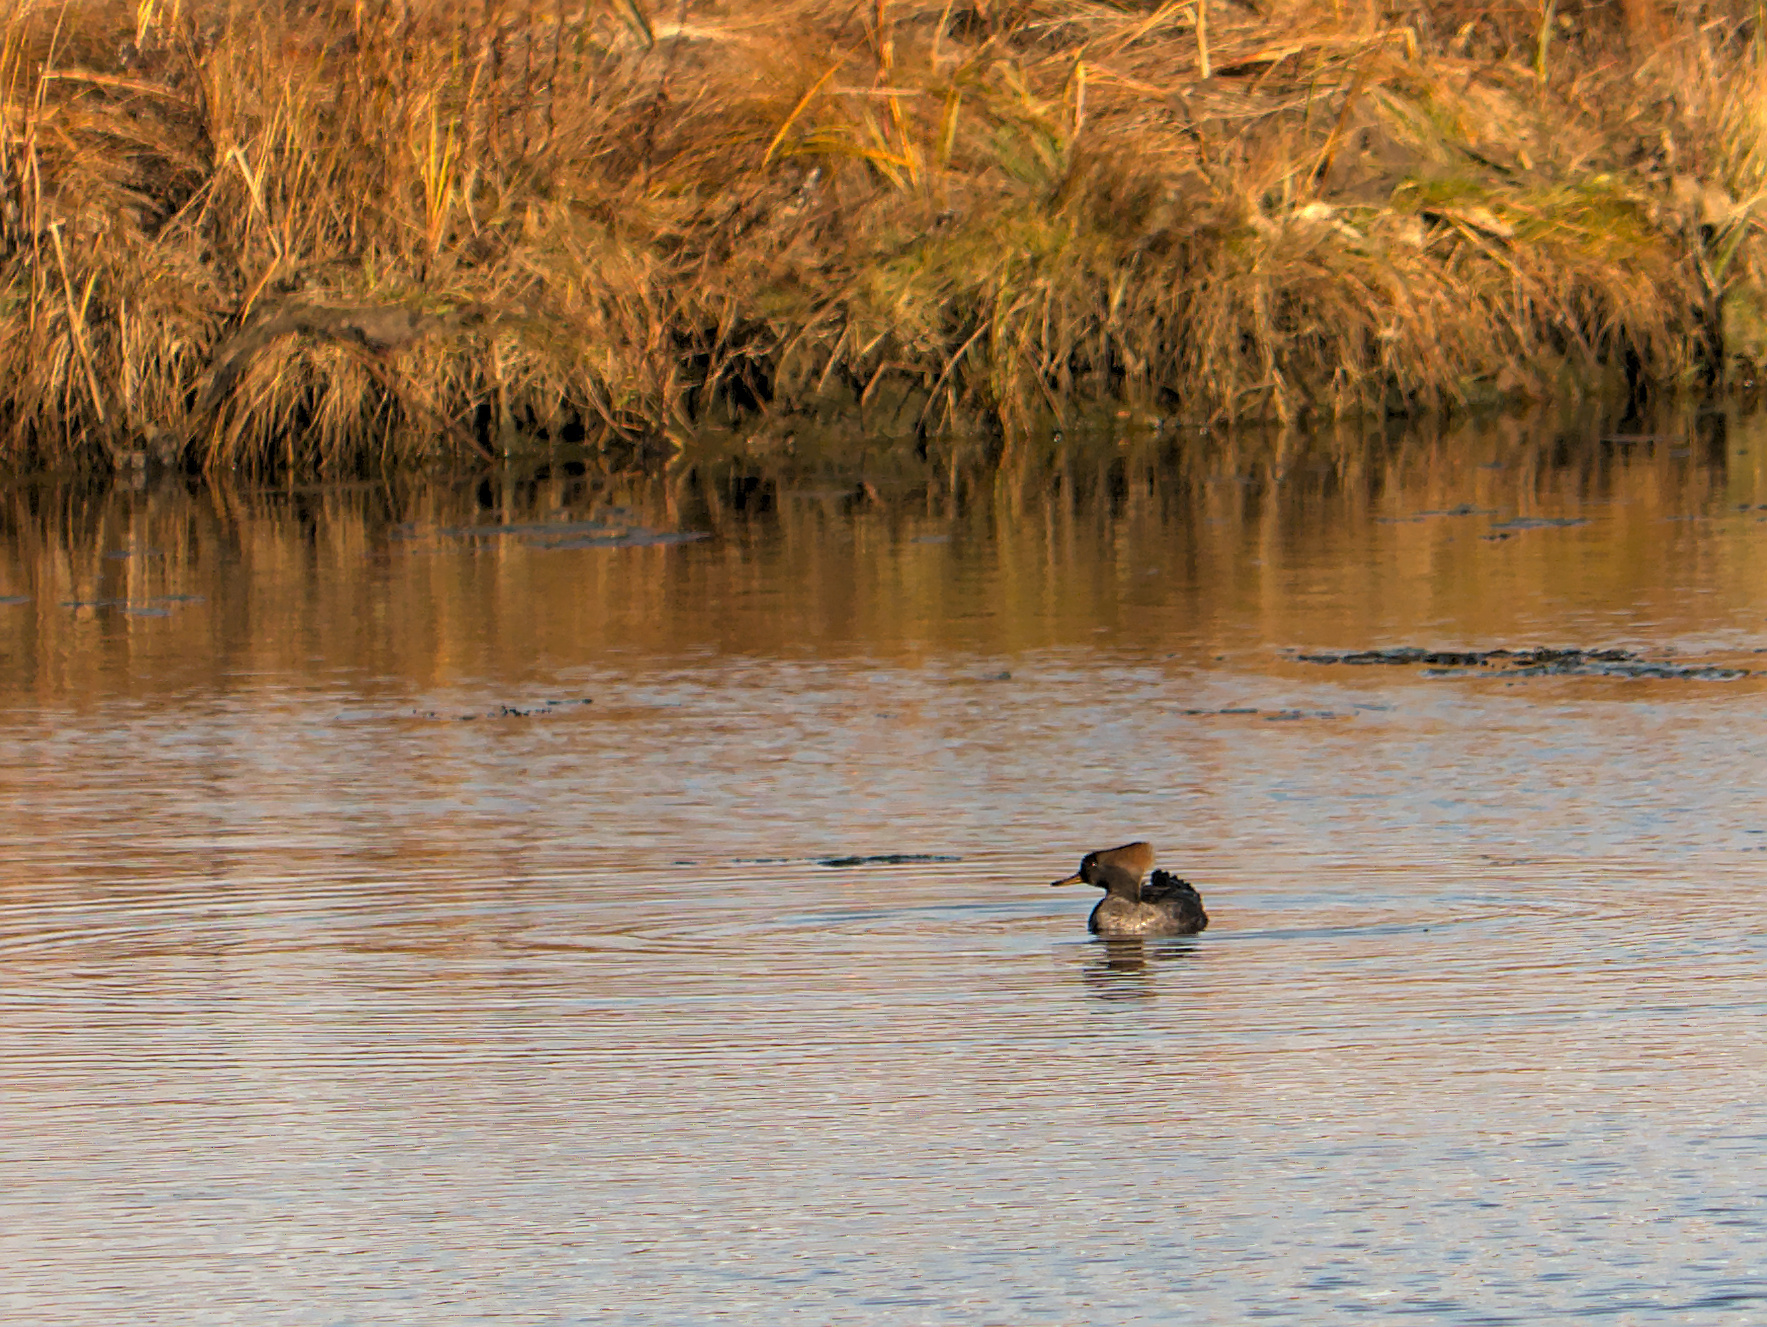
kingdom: Animalia
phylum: Chordata
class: Aves
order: Anseriformes
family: Anatidae
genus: Lophodytes
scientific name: Lophodytes cucullatus
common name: Hooded merganser
